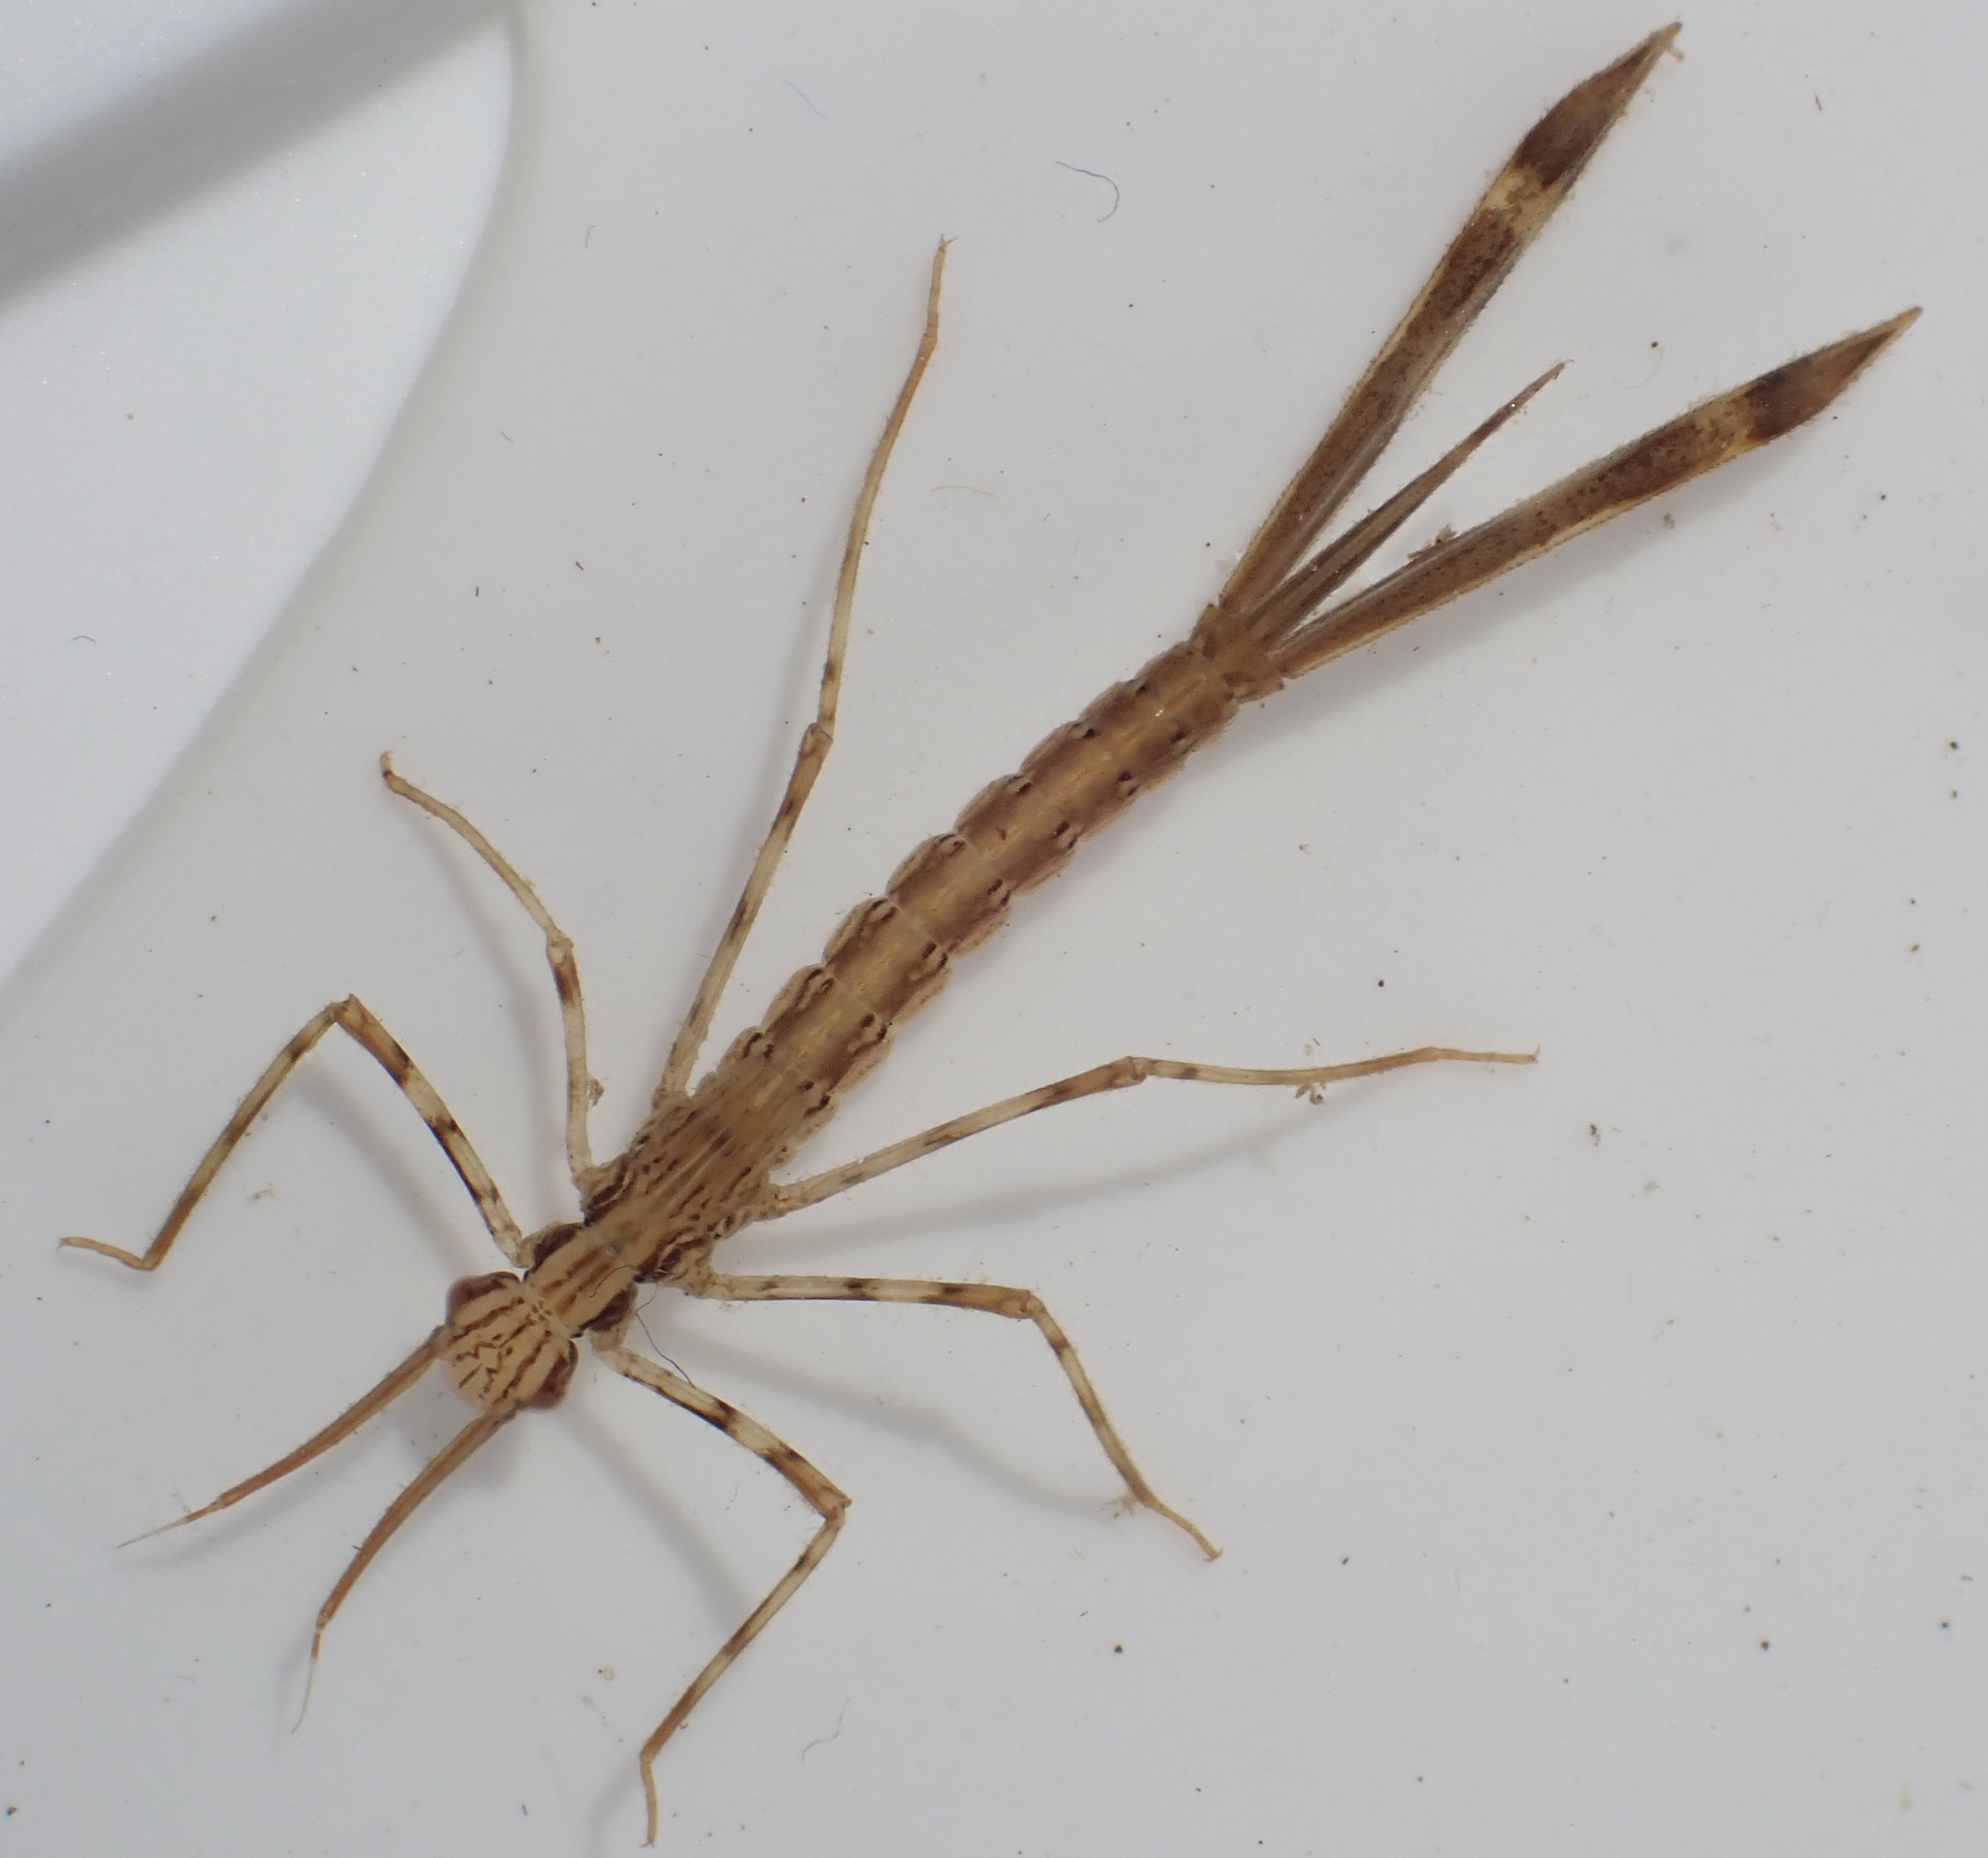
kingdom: Animalia
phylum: Arthropoda
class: Insecta
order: Odonata
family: Calopterygidae
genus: Phaon
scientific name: Phaon iridipennis
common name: Glistening demoiselle
